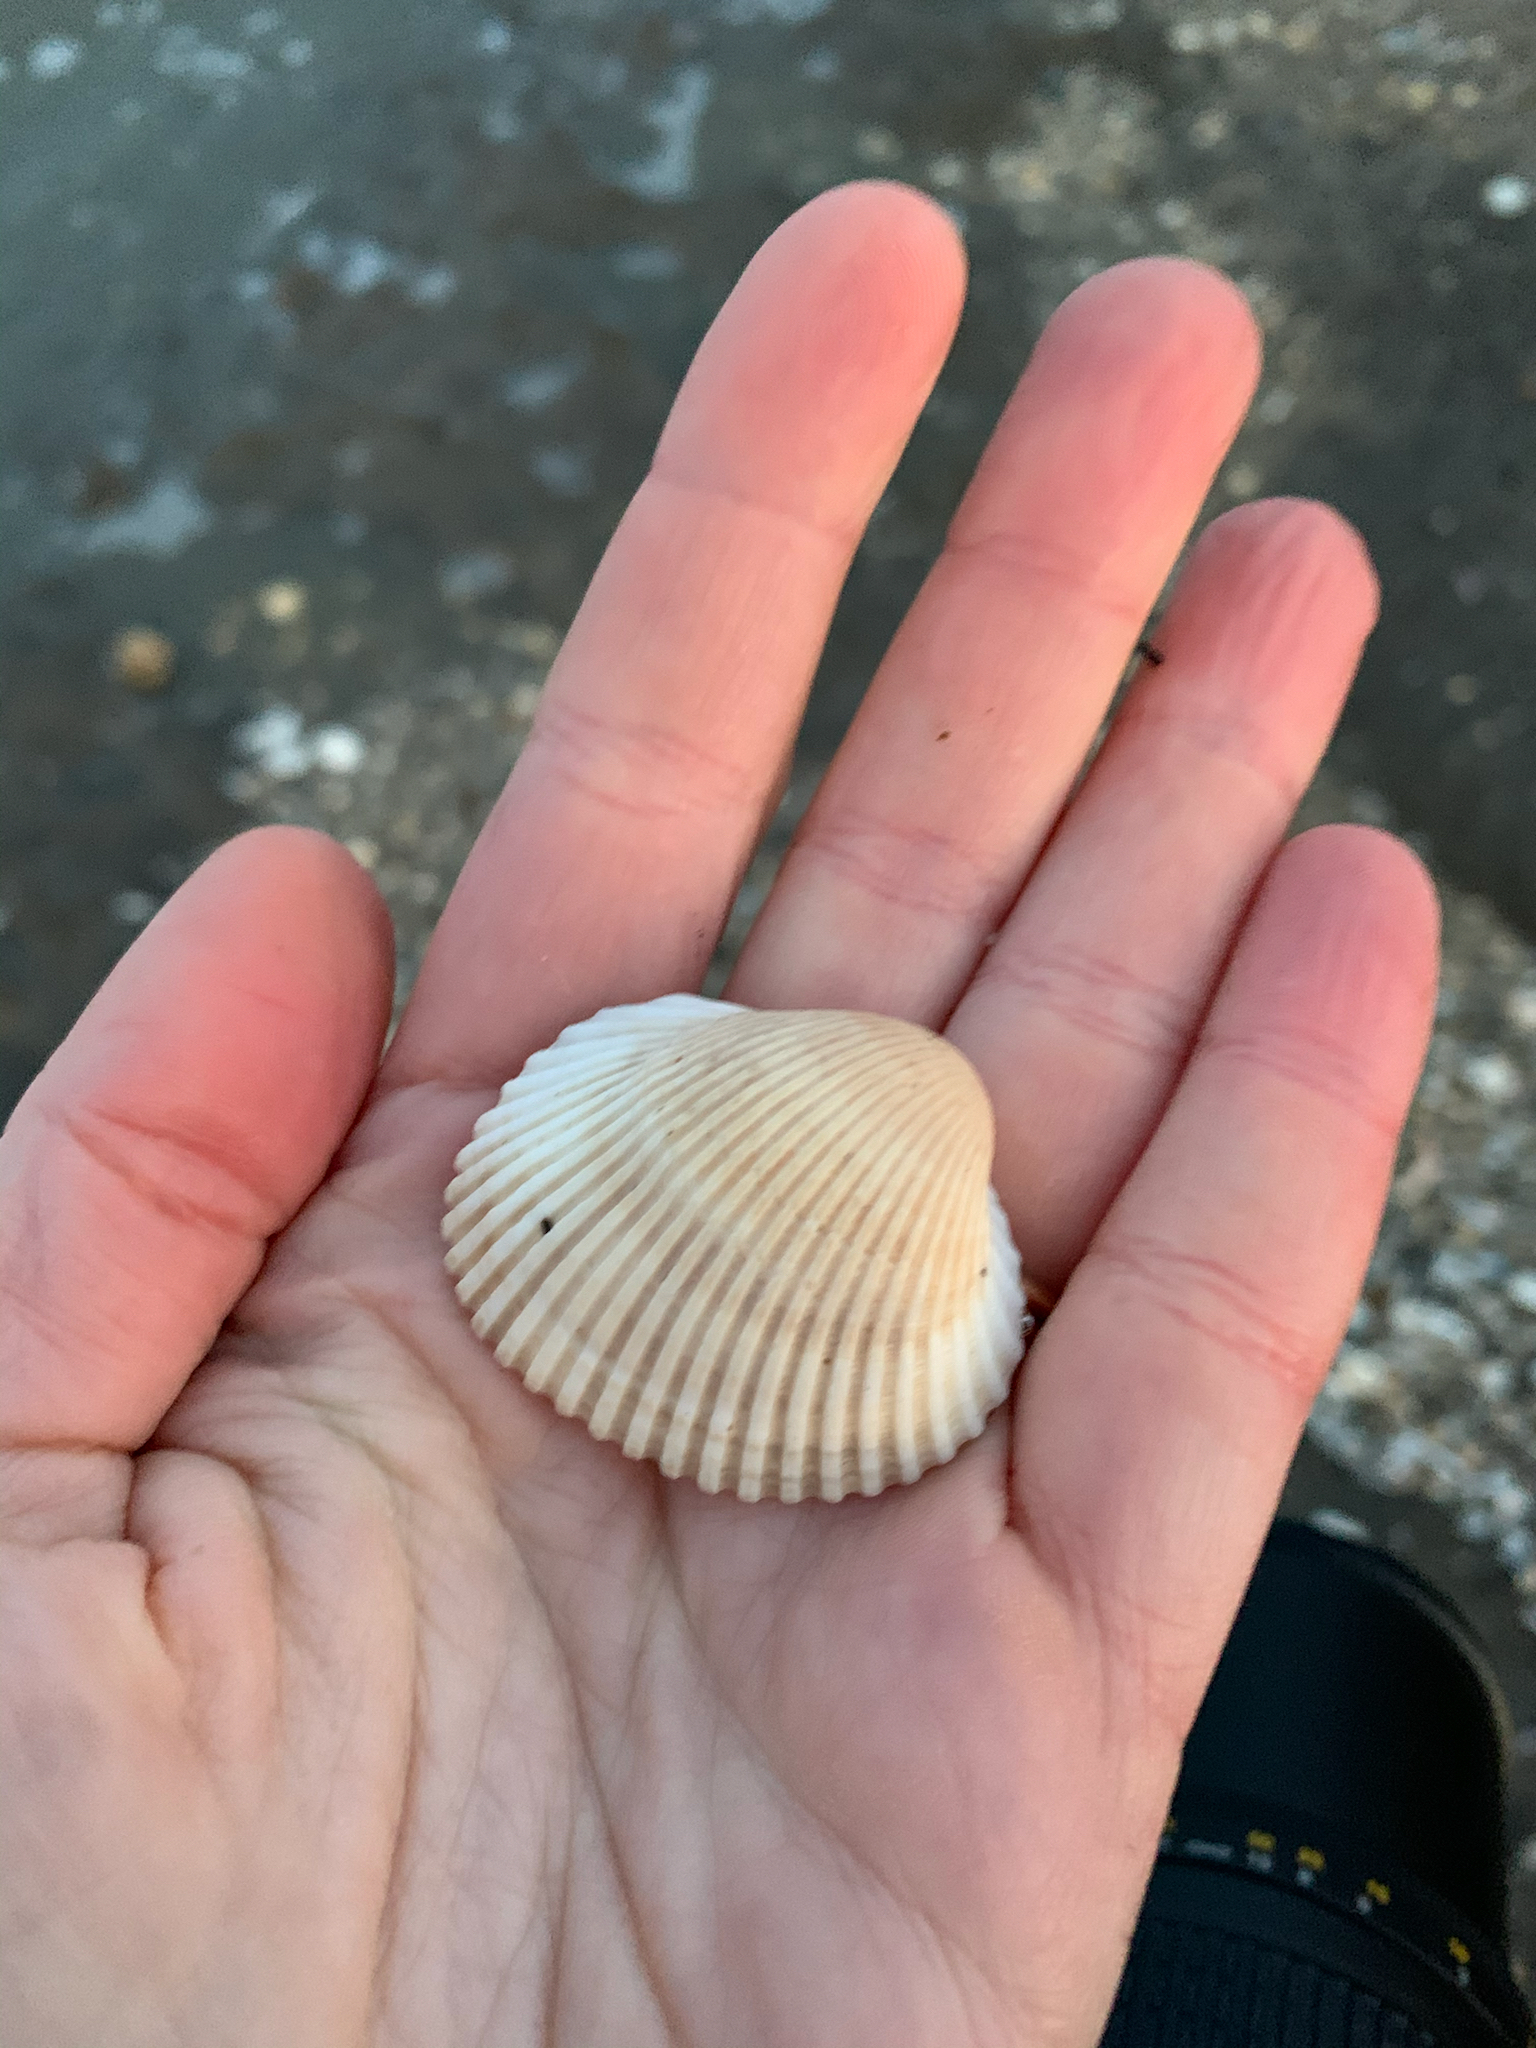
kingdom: Animalia
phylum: Mollusca
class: Bivalvia
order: Arcida
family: Arcidae
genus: Lunarca
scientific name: Lunarca ovalis
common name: Blood ark
